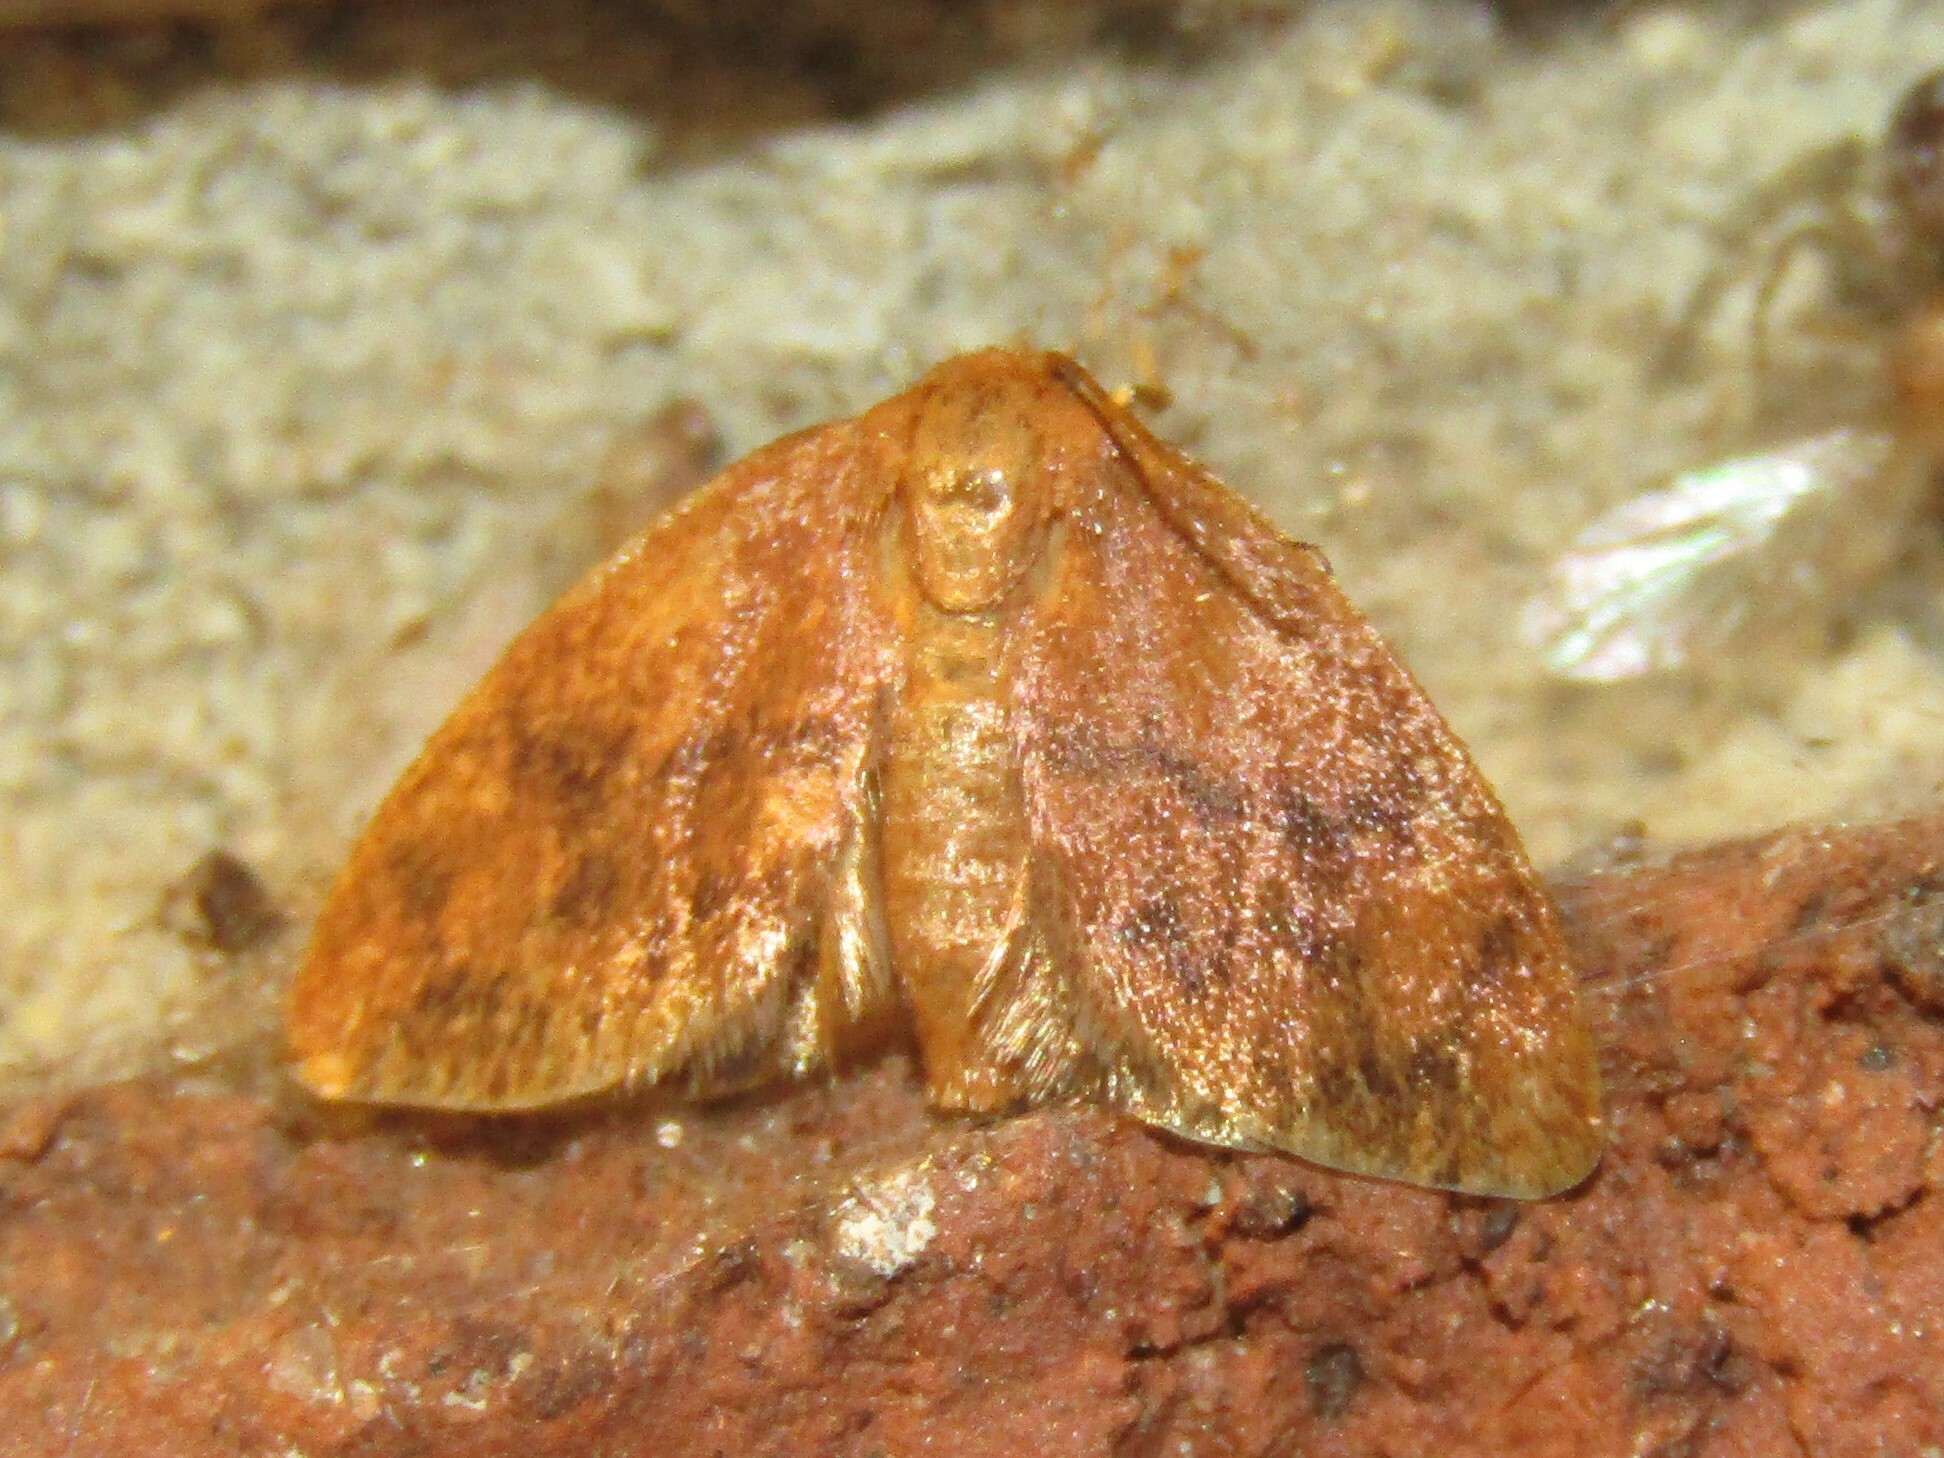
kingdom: Animalia
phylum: Arthropoda
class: Insecta
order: Lepidoptera
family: Limacodidae
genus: Heterogenea
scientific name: Heterogenea shurtleffi
